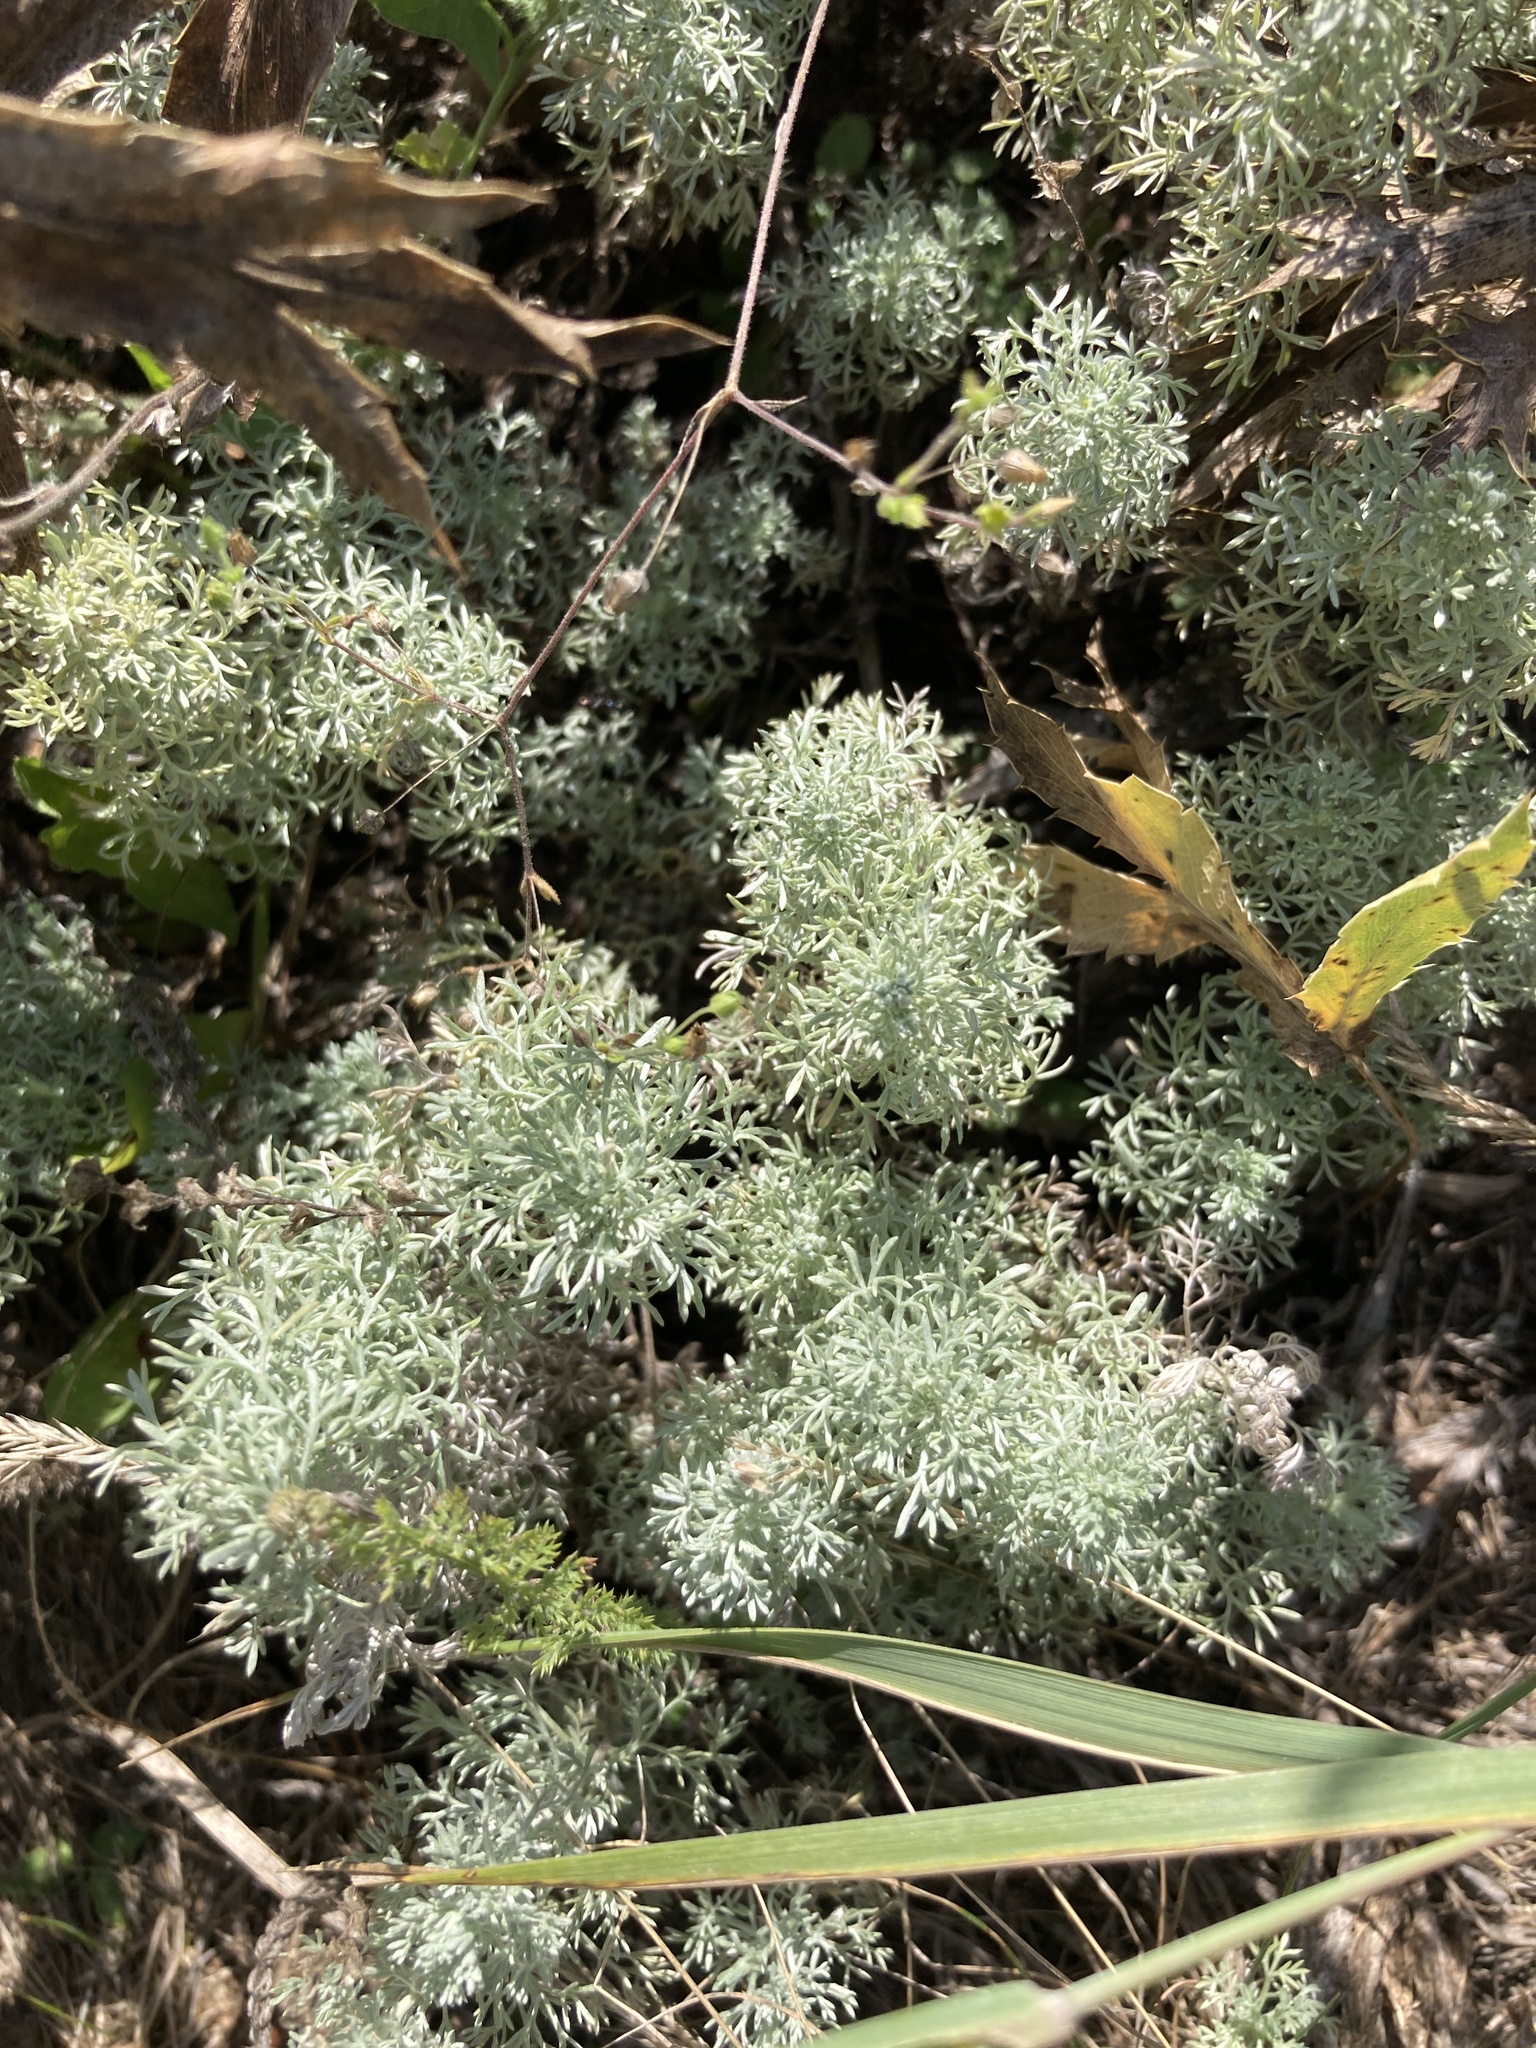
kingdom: Plantae
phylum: Tracheophyta
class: Magnoliopsida
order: Asterales
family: Asteraceae
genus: Artemisia
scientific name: Artemisia austriaca
